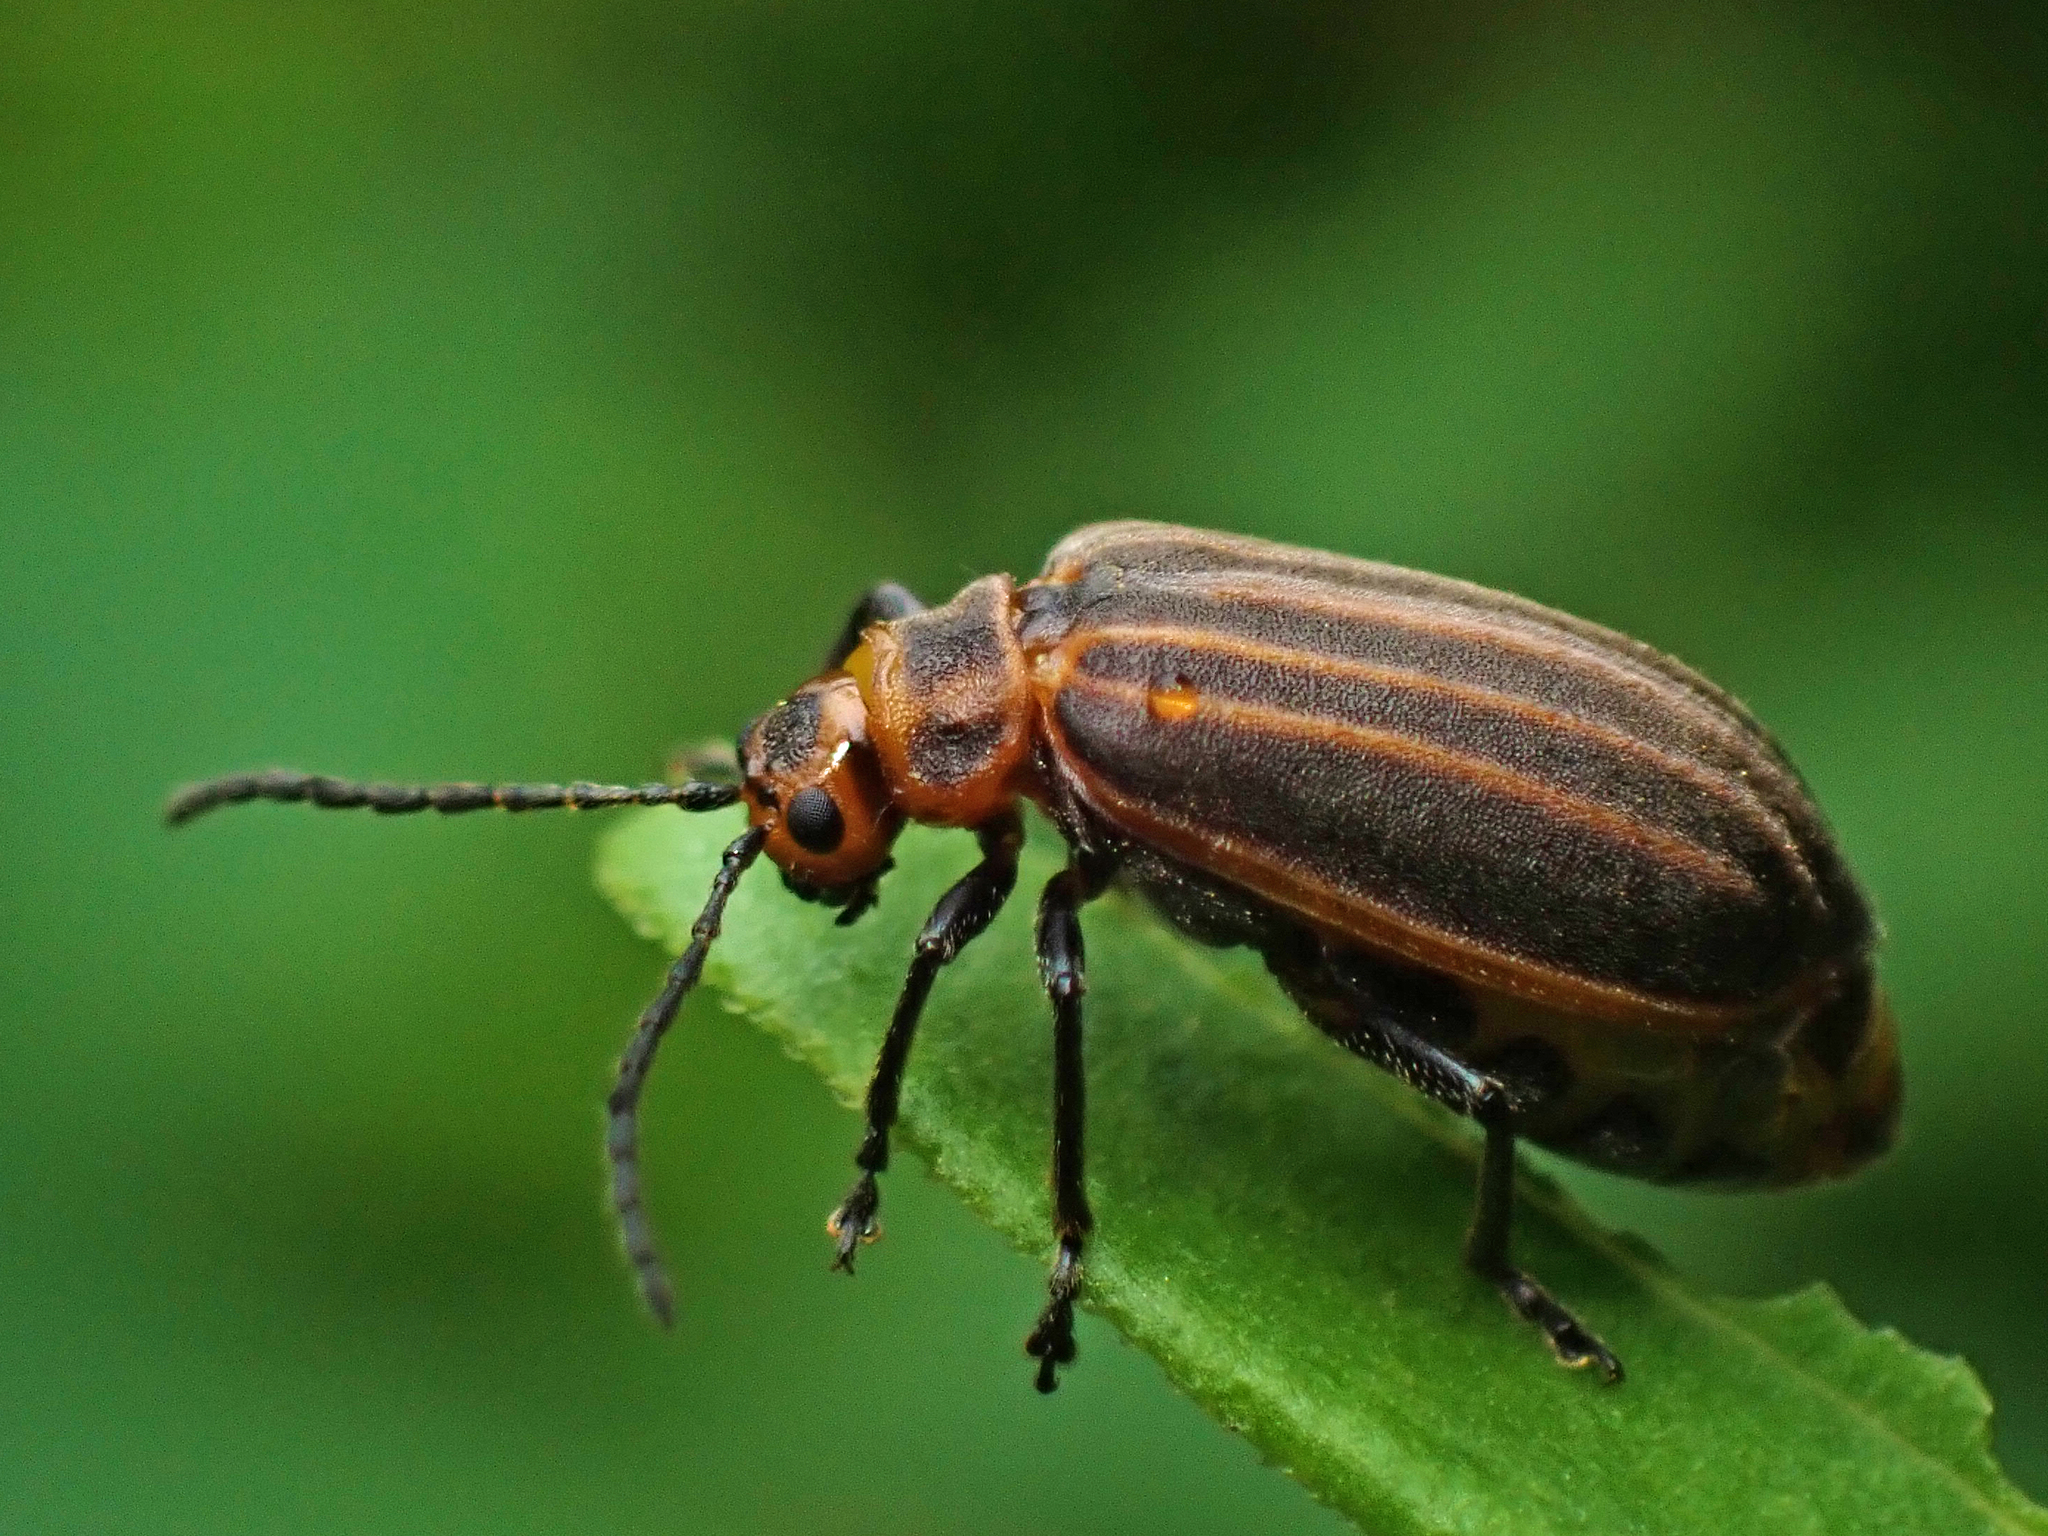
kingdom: Animalia
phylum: Arthropoda
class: Insecta
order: Coleoptera
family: Chrysomelidae
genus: Neolochmaea
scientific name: Neolochmaea dilatipennis
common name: Skeletonizing leaf beetle
